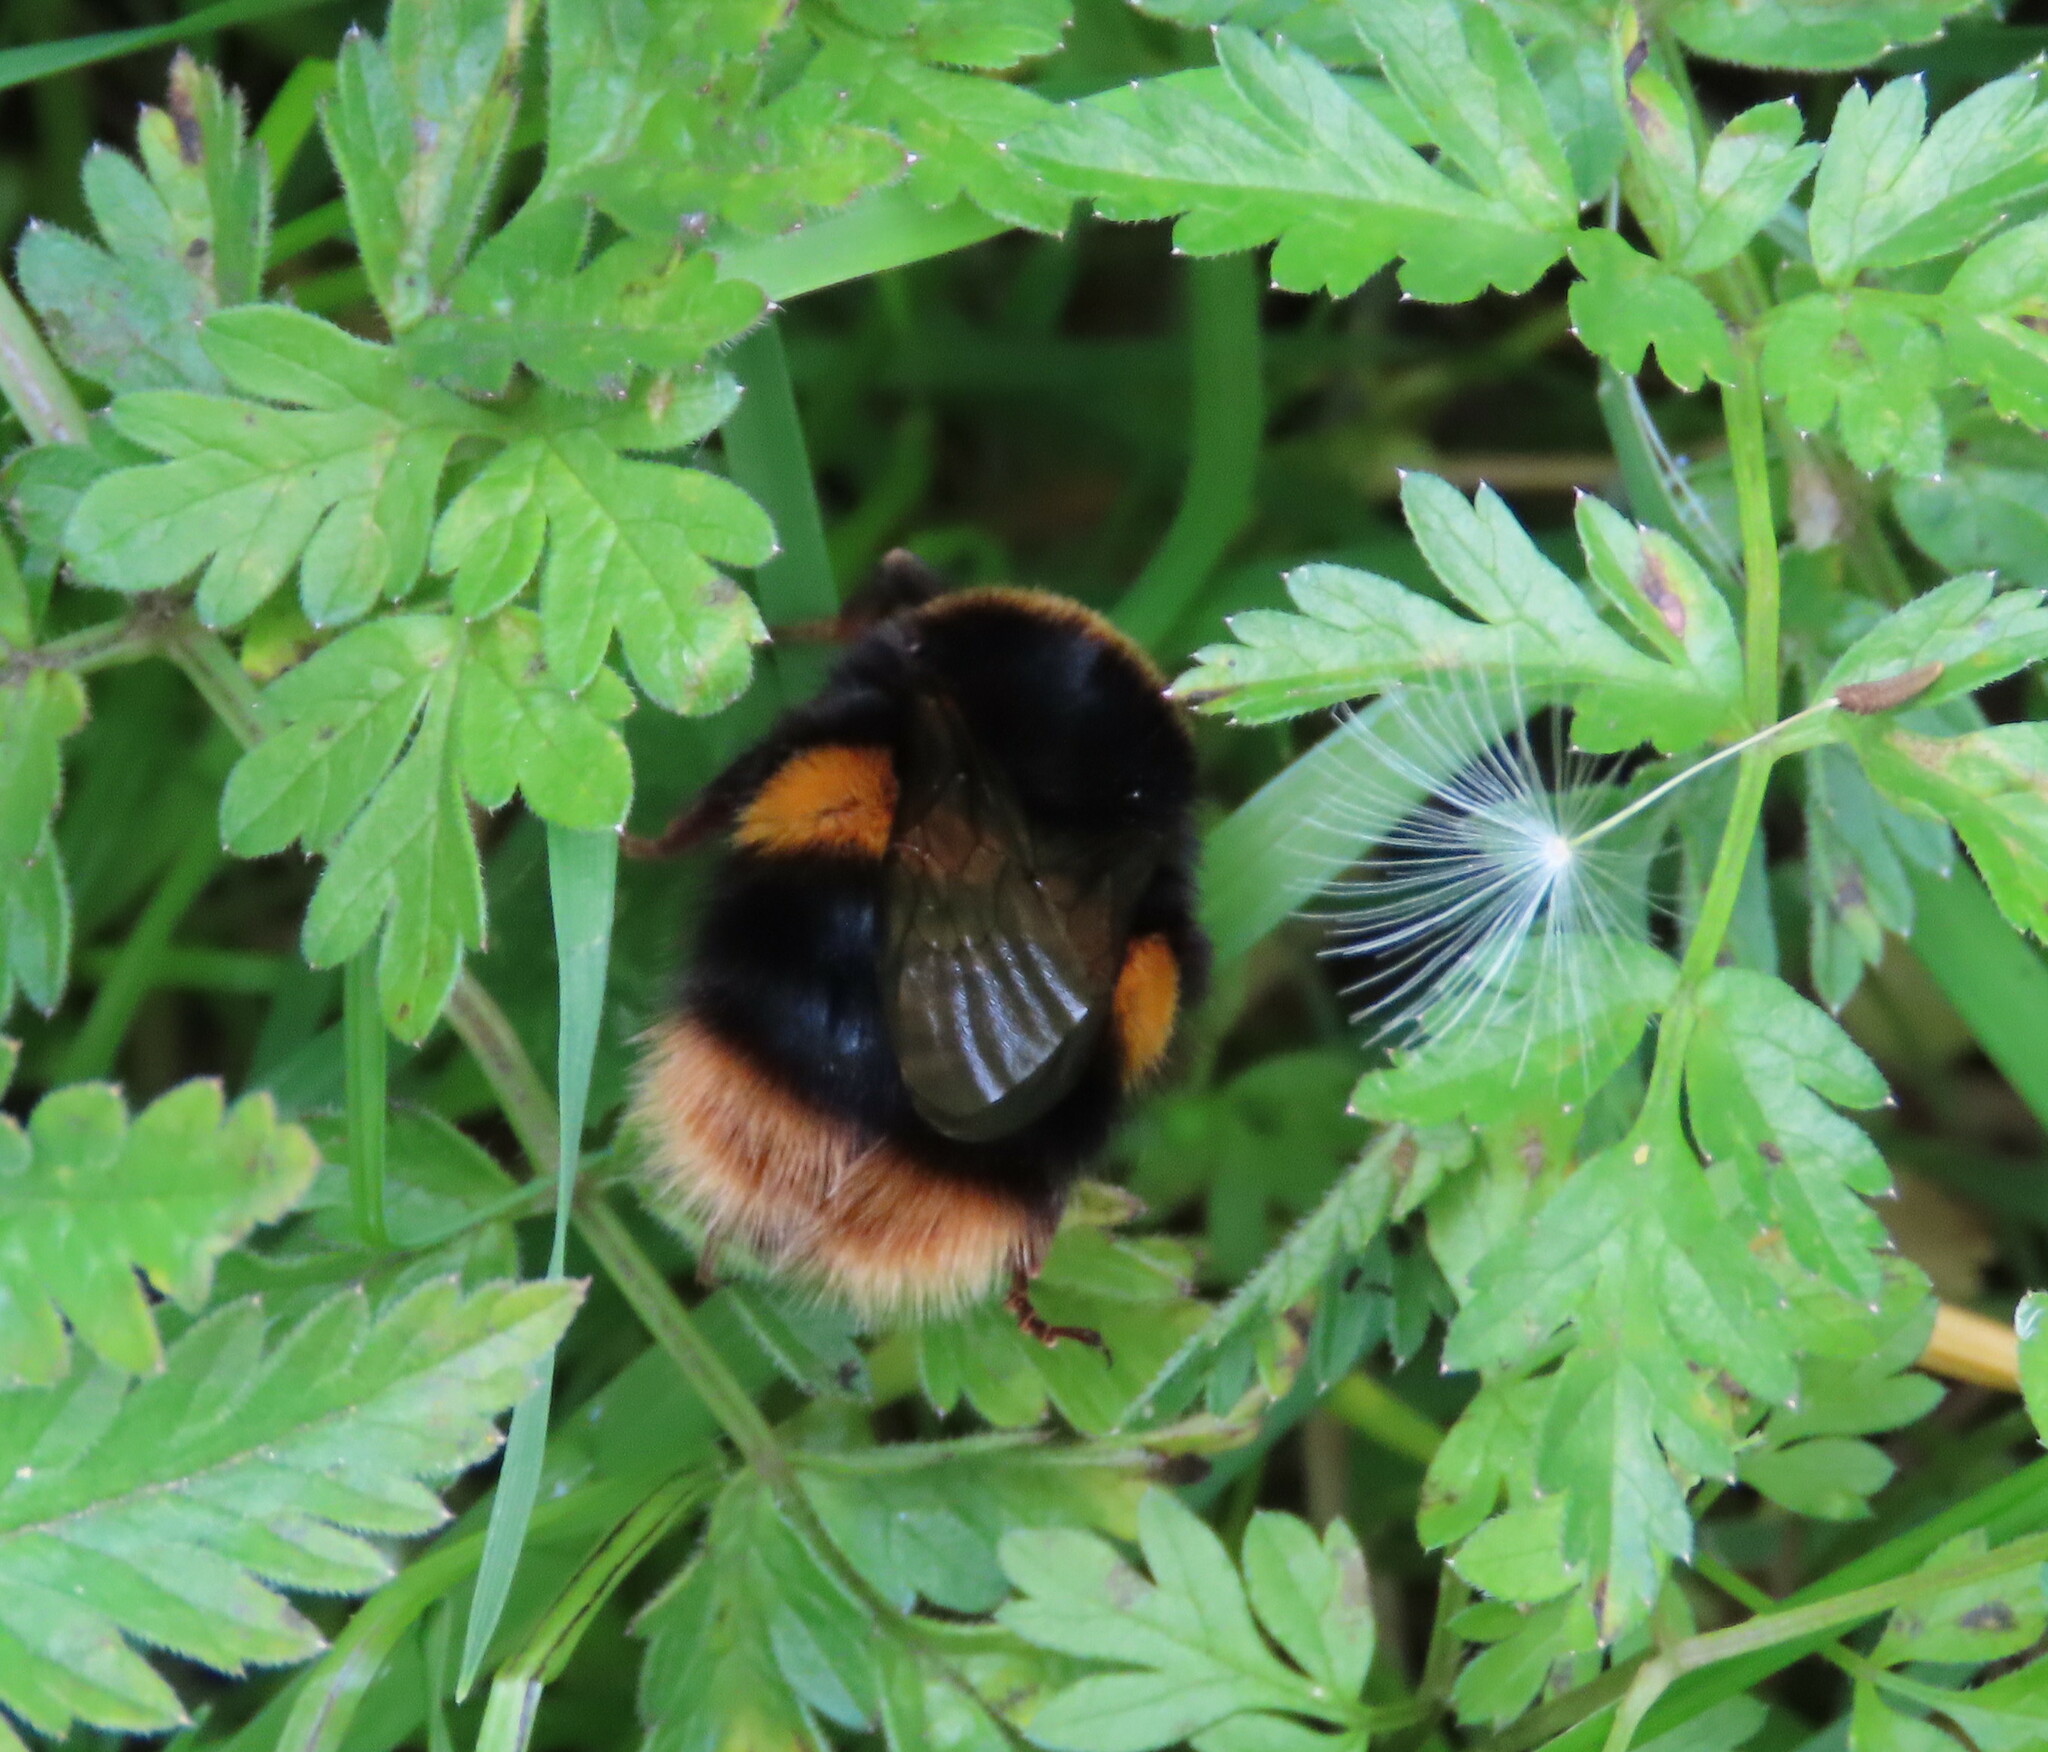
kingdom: Animalia
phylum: Arthropoda
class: Insecta
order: Hymenoptera
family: Apidae
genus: Bombus
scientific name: Bombus terrestris
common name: Buff-tailed bumblebee
